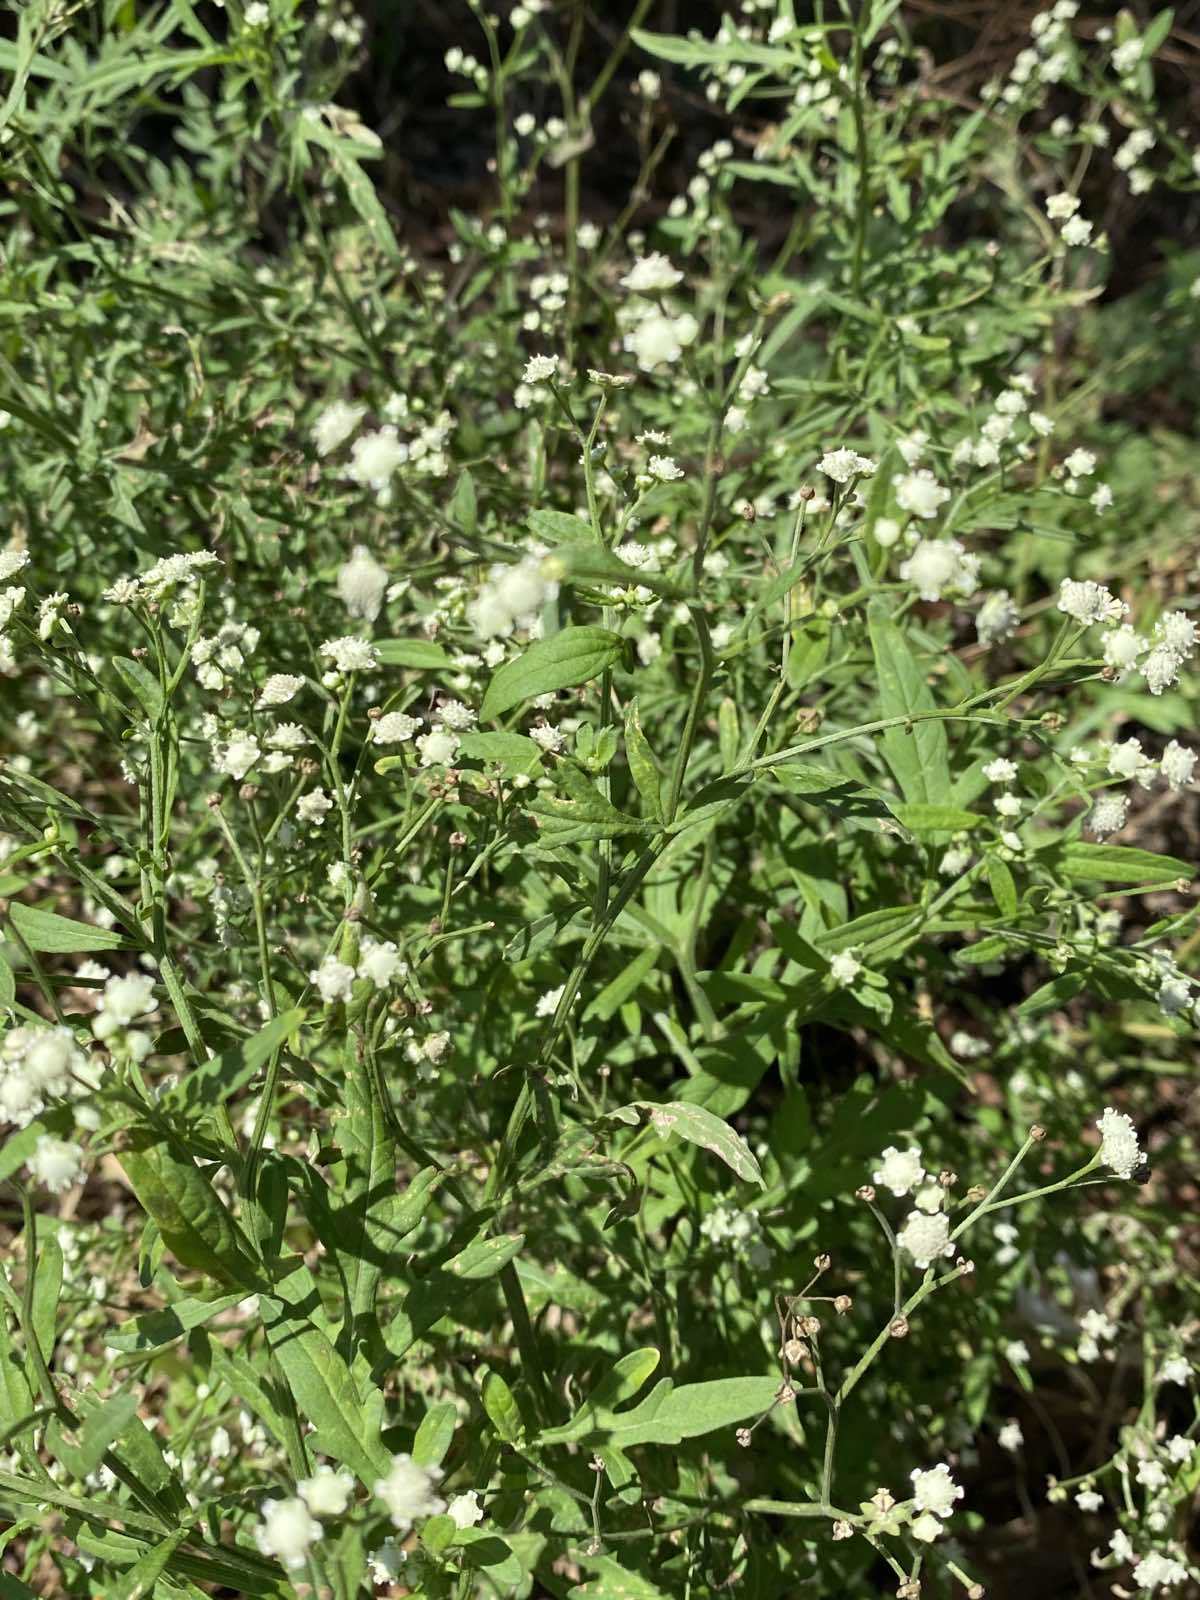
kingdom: Plantae
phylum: Tracheophyta
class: Magnoliopsida
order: Asterales
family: Asteraceae
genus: Parthenium
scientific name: Parthenium hysterophorus
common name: Santa maria feverfew
